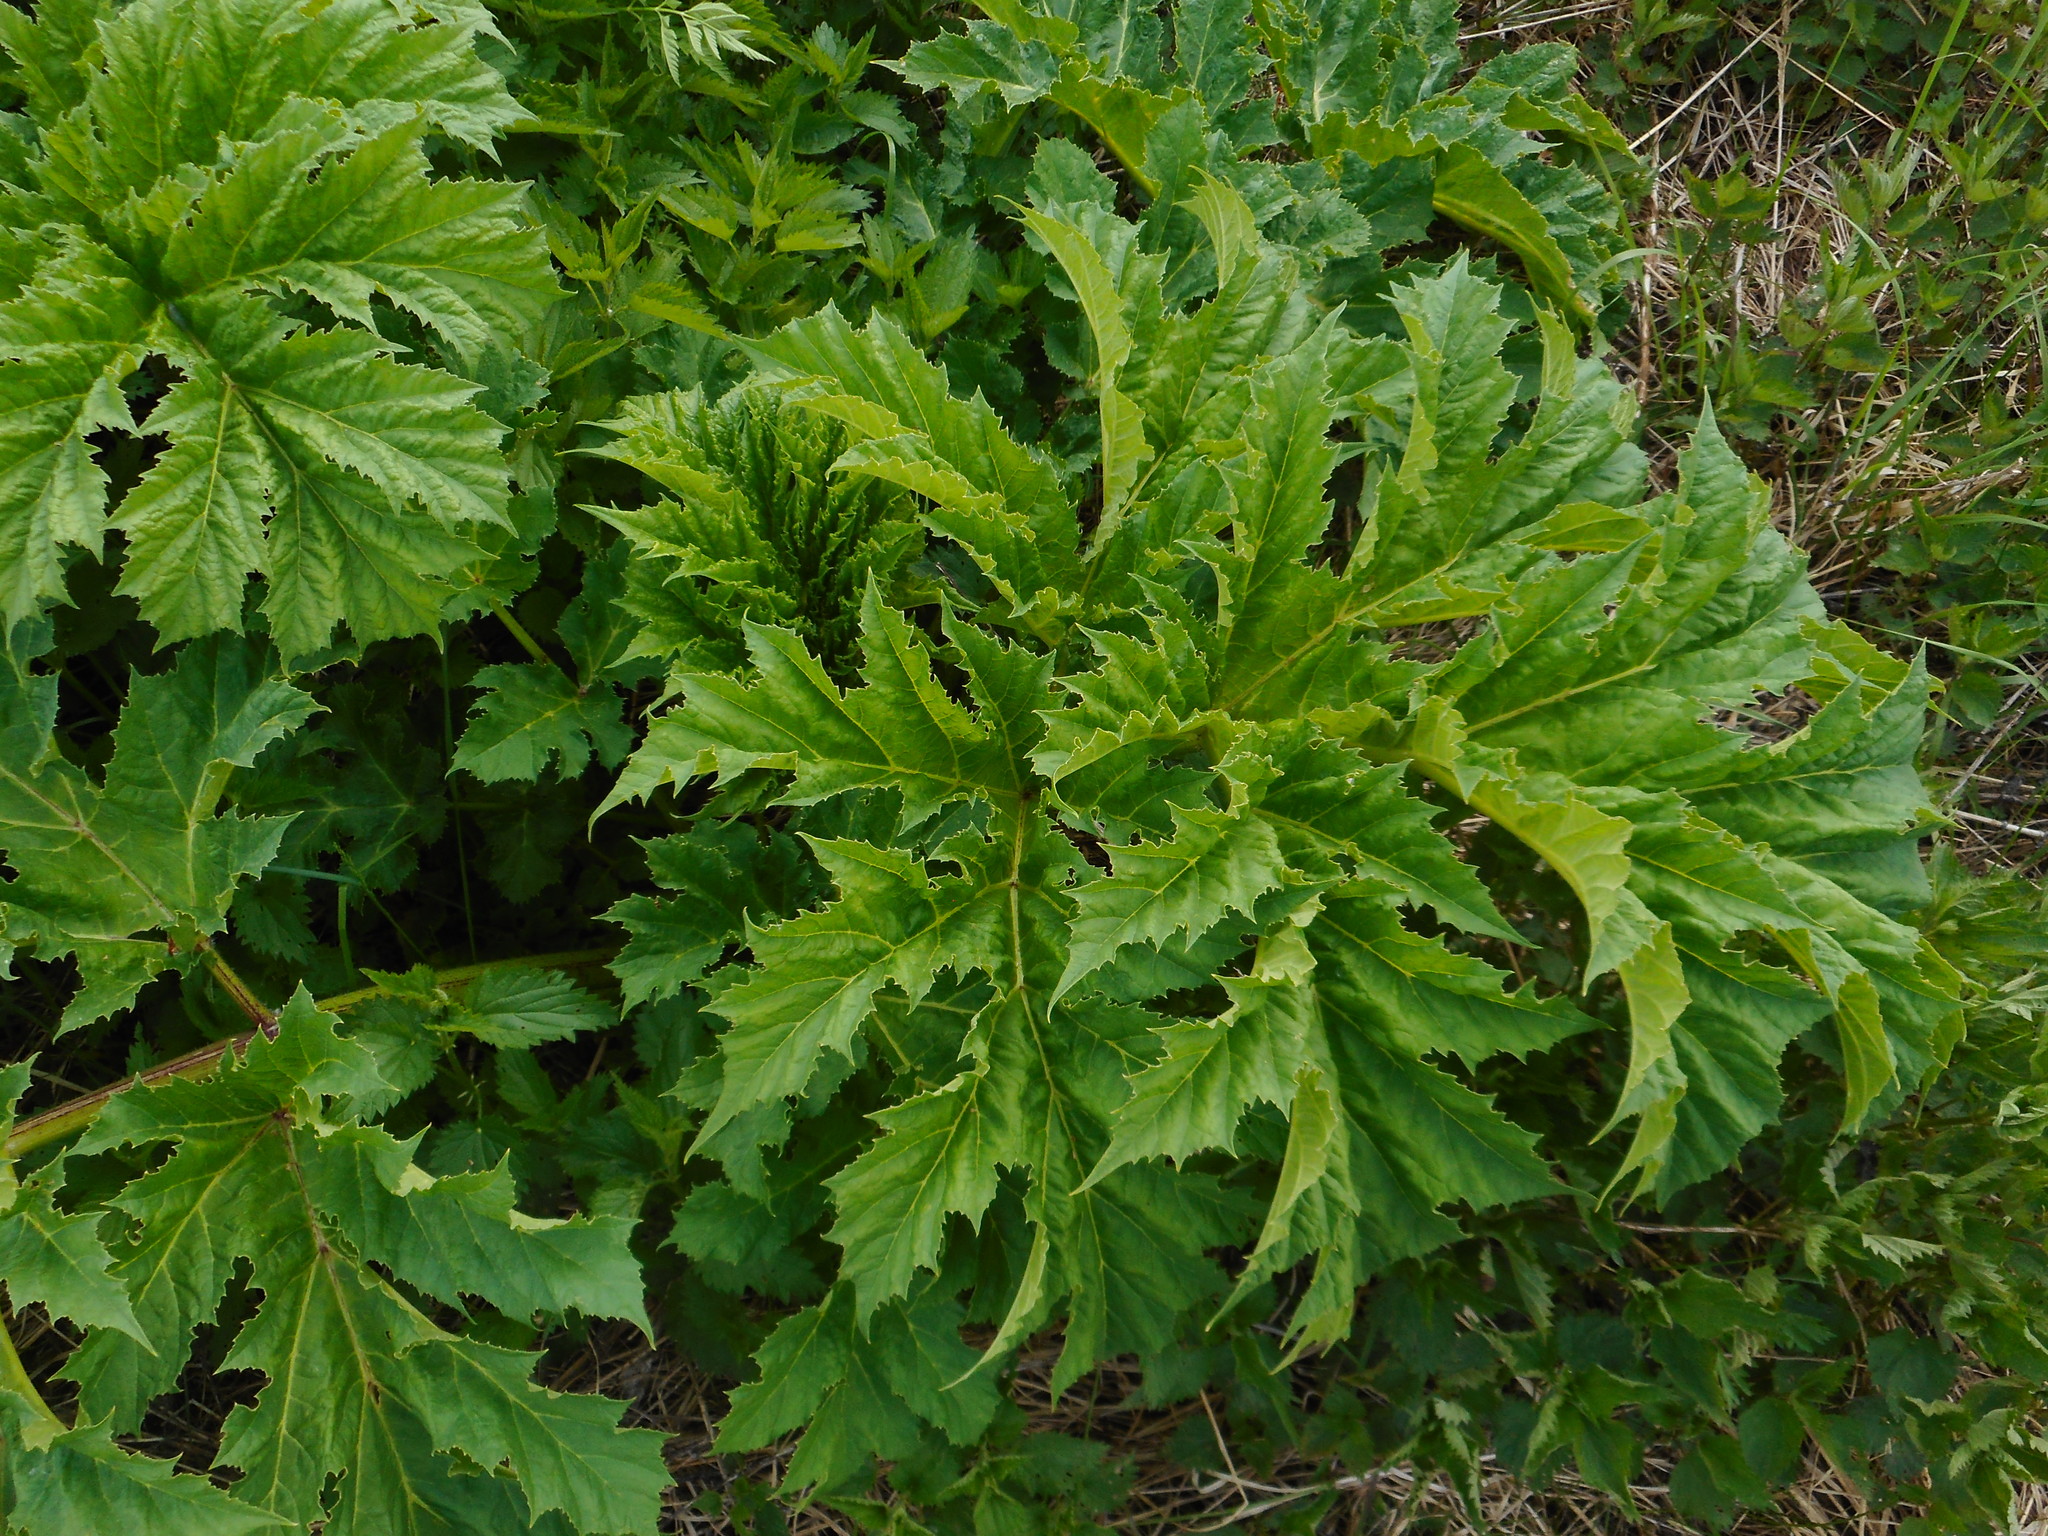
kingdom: Plantae
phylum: Tracheophyta
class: Magnoliopsida
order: Apiales
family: Apiaceae
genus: Heracleum
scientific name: Heracleum sosnowskyi
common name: Sosnowsky's hogweed
